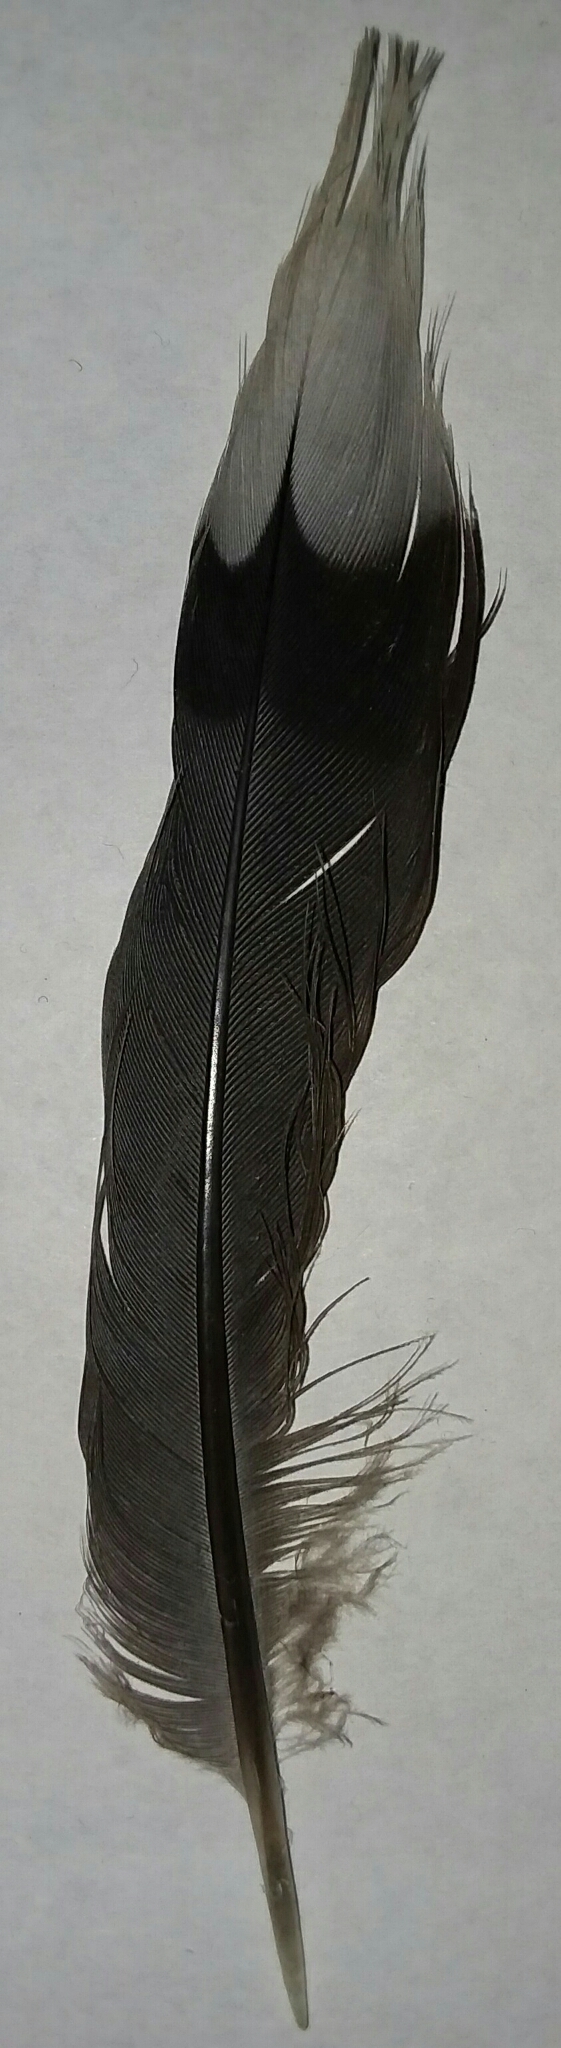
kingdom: Animalia
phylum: Chordata
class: Aves
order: Columbiformes
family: Columbidae
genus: Zenaida
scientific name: Zenaida macroura
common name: Mourning dove
